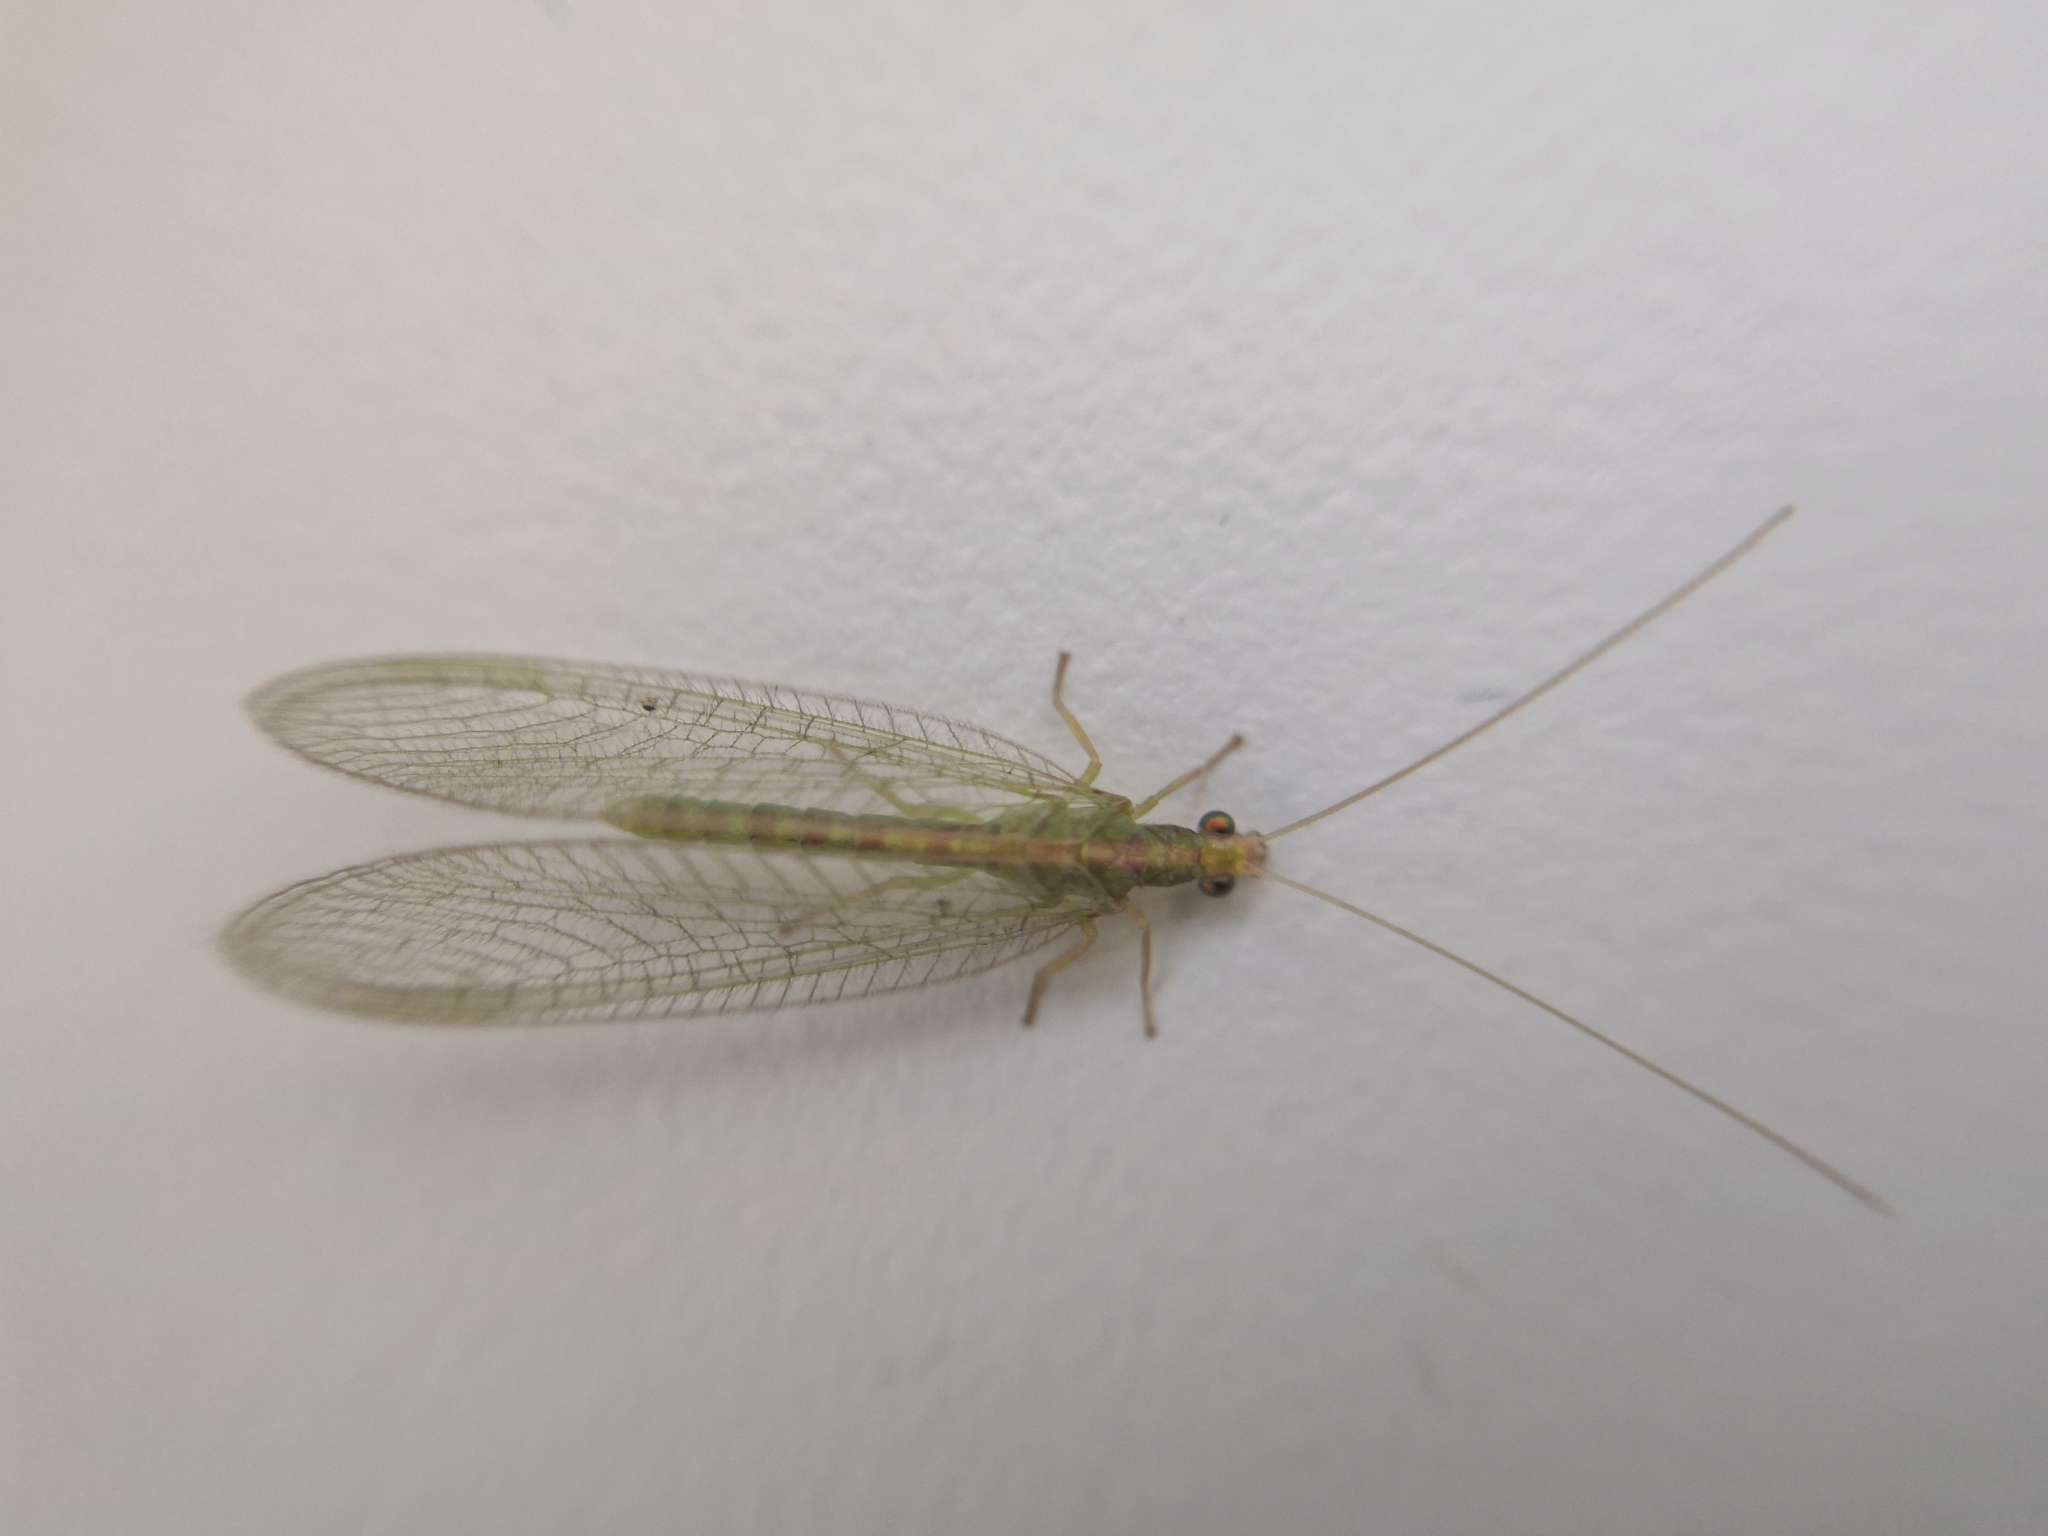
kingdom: Animalia
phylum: Arthropoda
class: Insecta
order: Neuroptera
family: Chrysopidae
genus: Chrysoperla
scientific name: Chrysoperla
